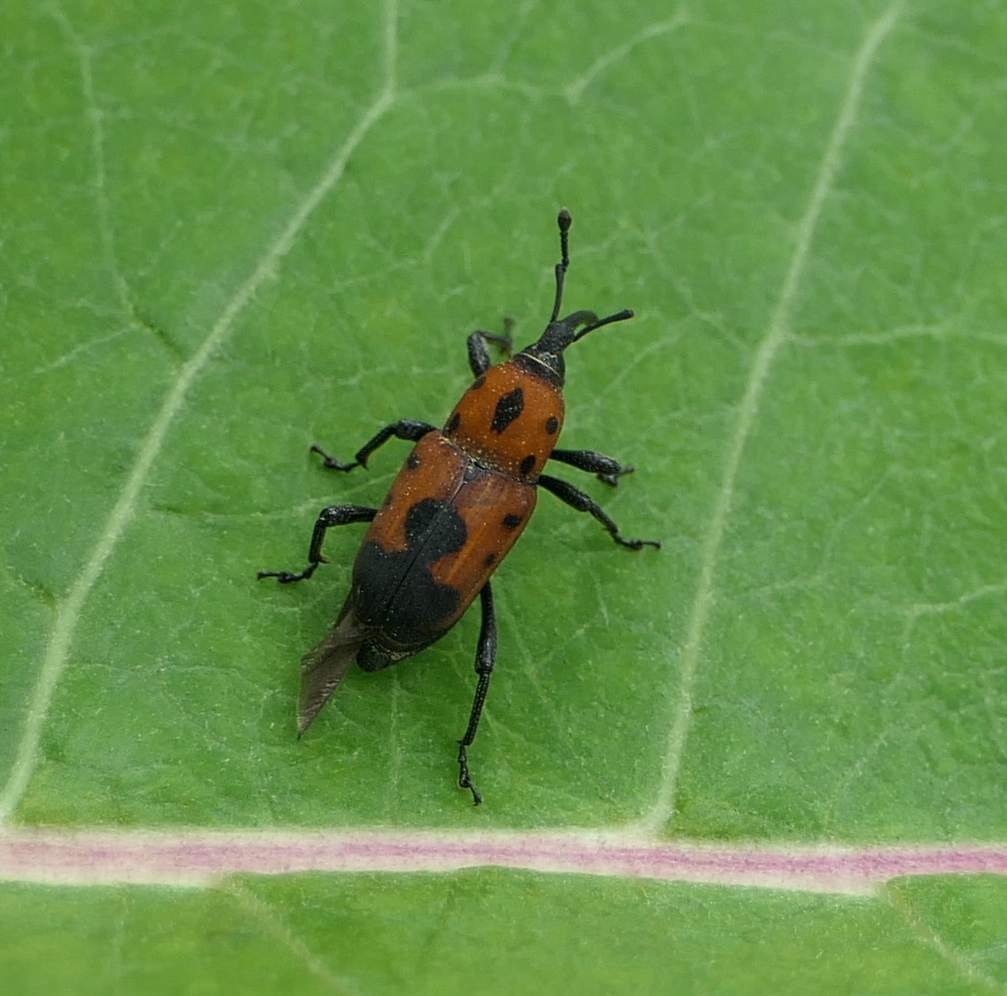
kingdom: Animalia
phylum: Arthropoda
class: Insecta
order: Coleoptera
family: Dryophthoridae
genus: Rhodobaenus
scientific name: Rhodobaenus quinquepunctatus
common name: Cocklebur weevil
